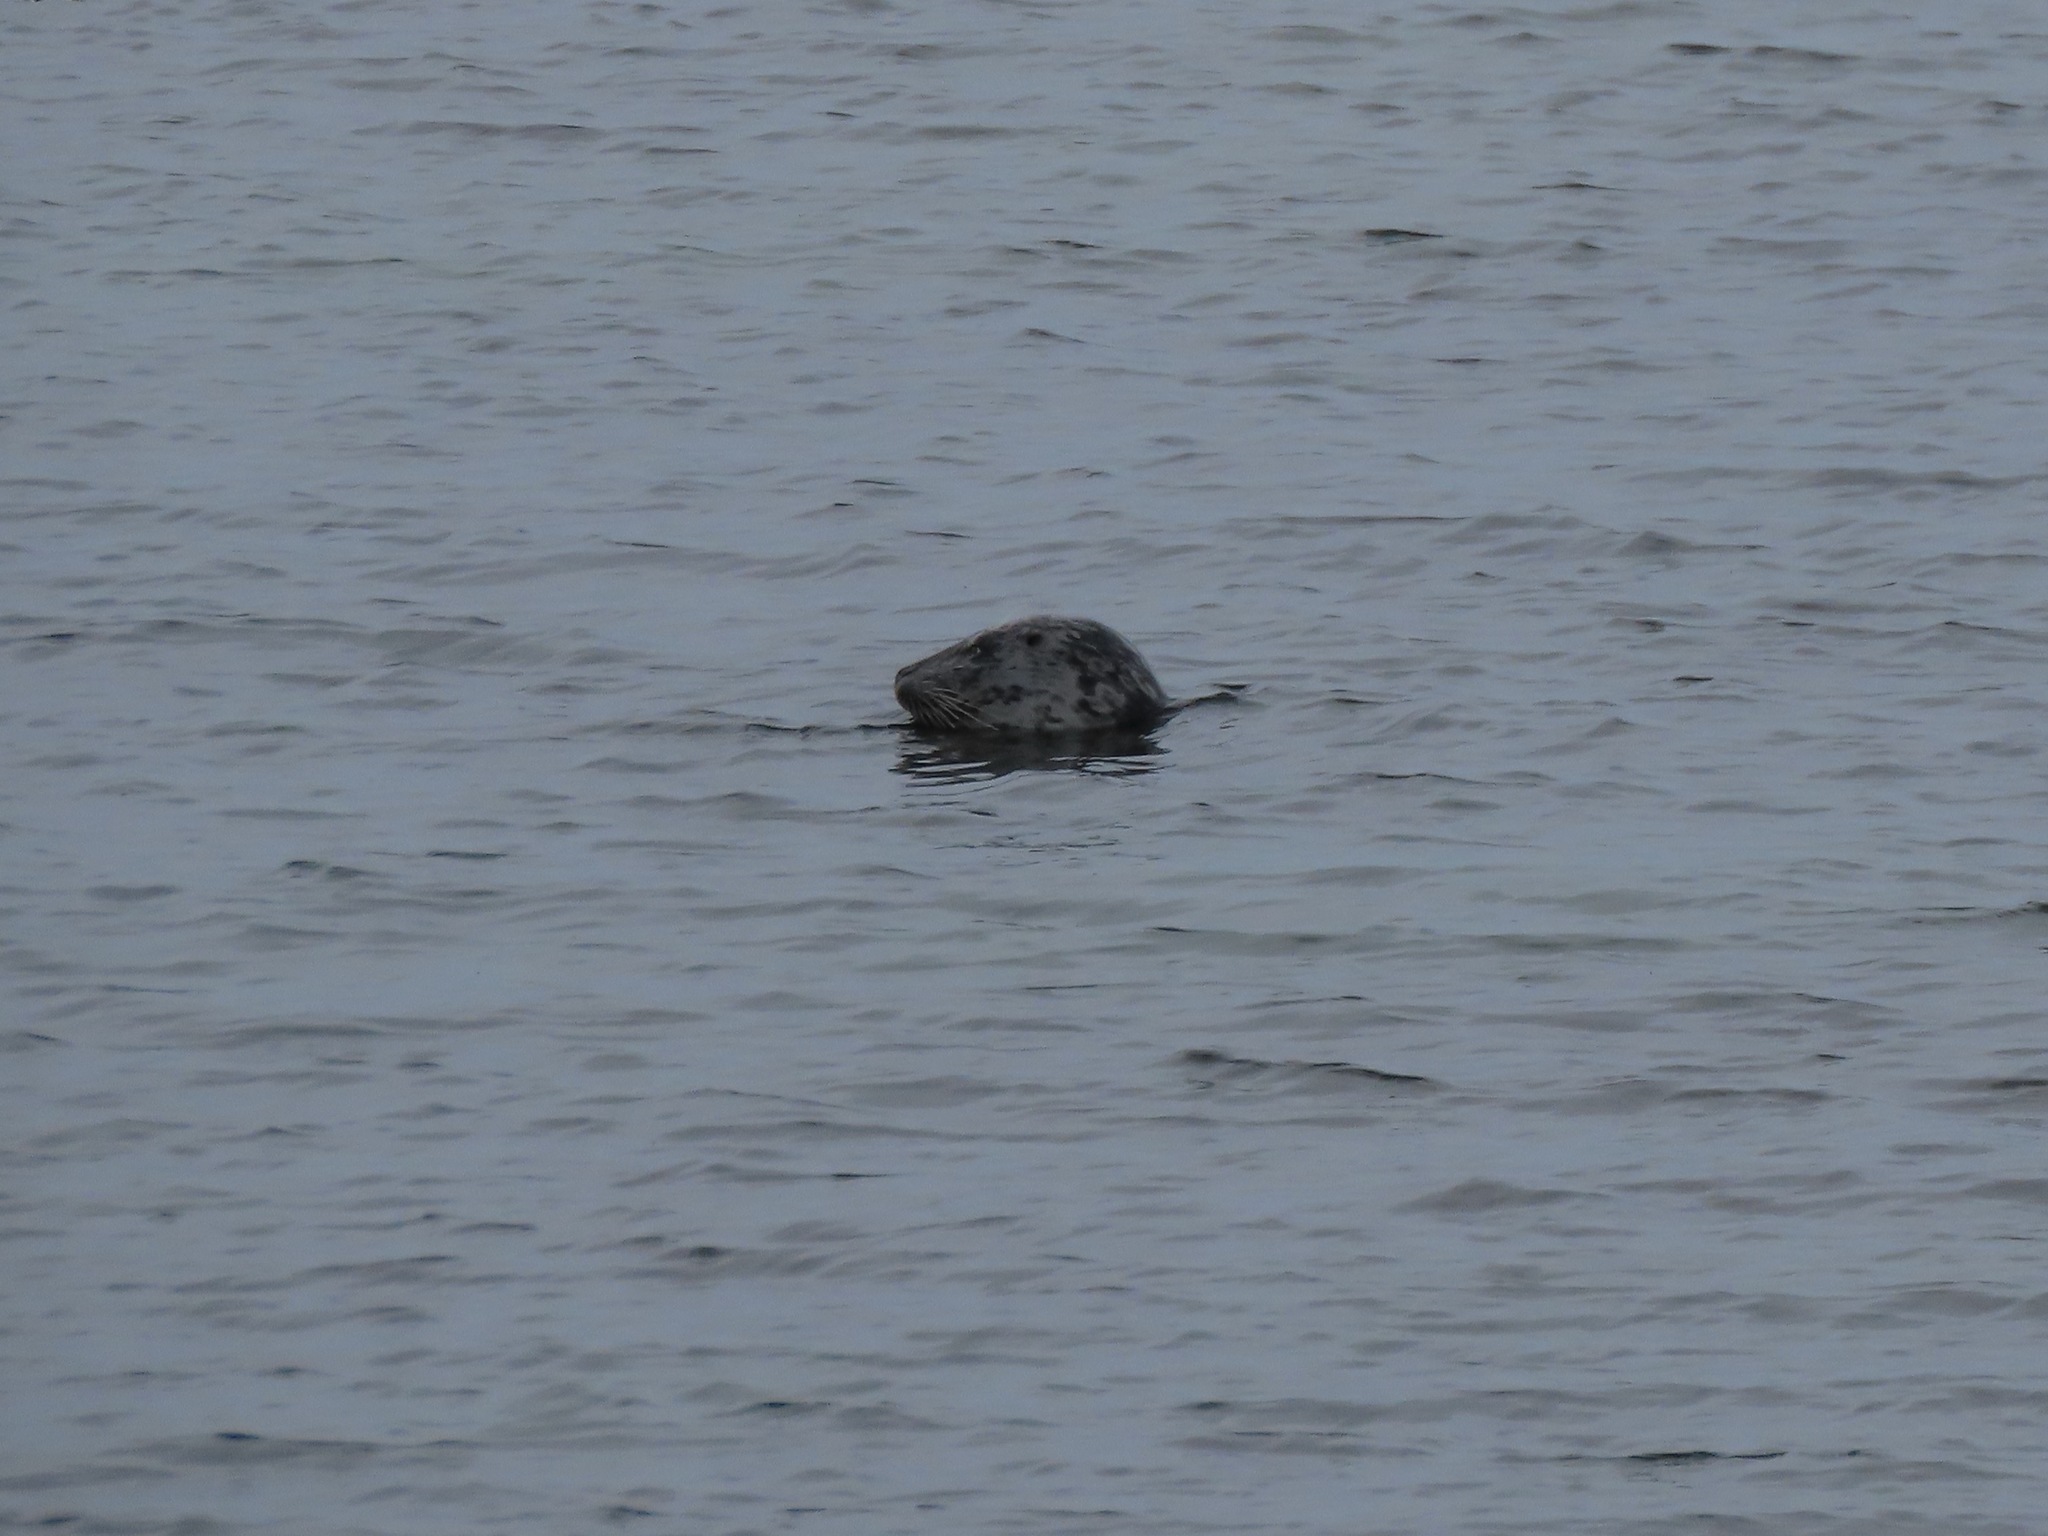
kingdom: Animalia
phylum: Chordata
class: Mammalia
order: Carnivora
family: Phocidae
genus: Phoca
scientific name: Phoca vitulina
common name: Harbor seal
